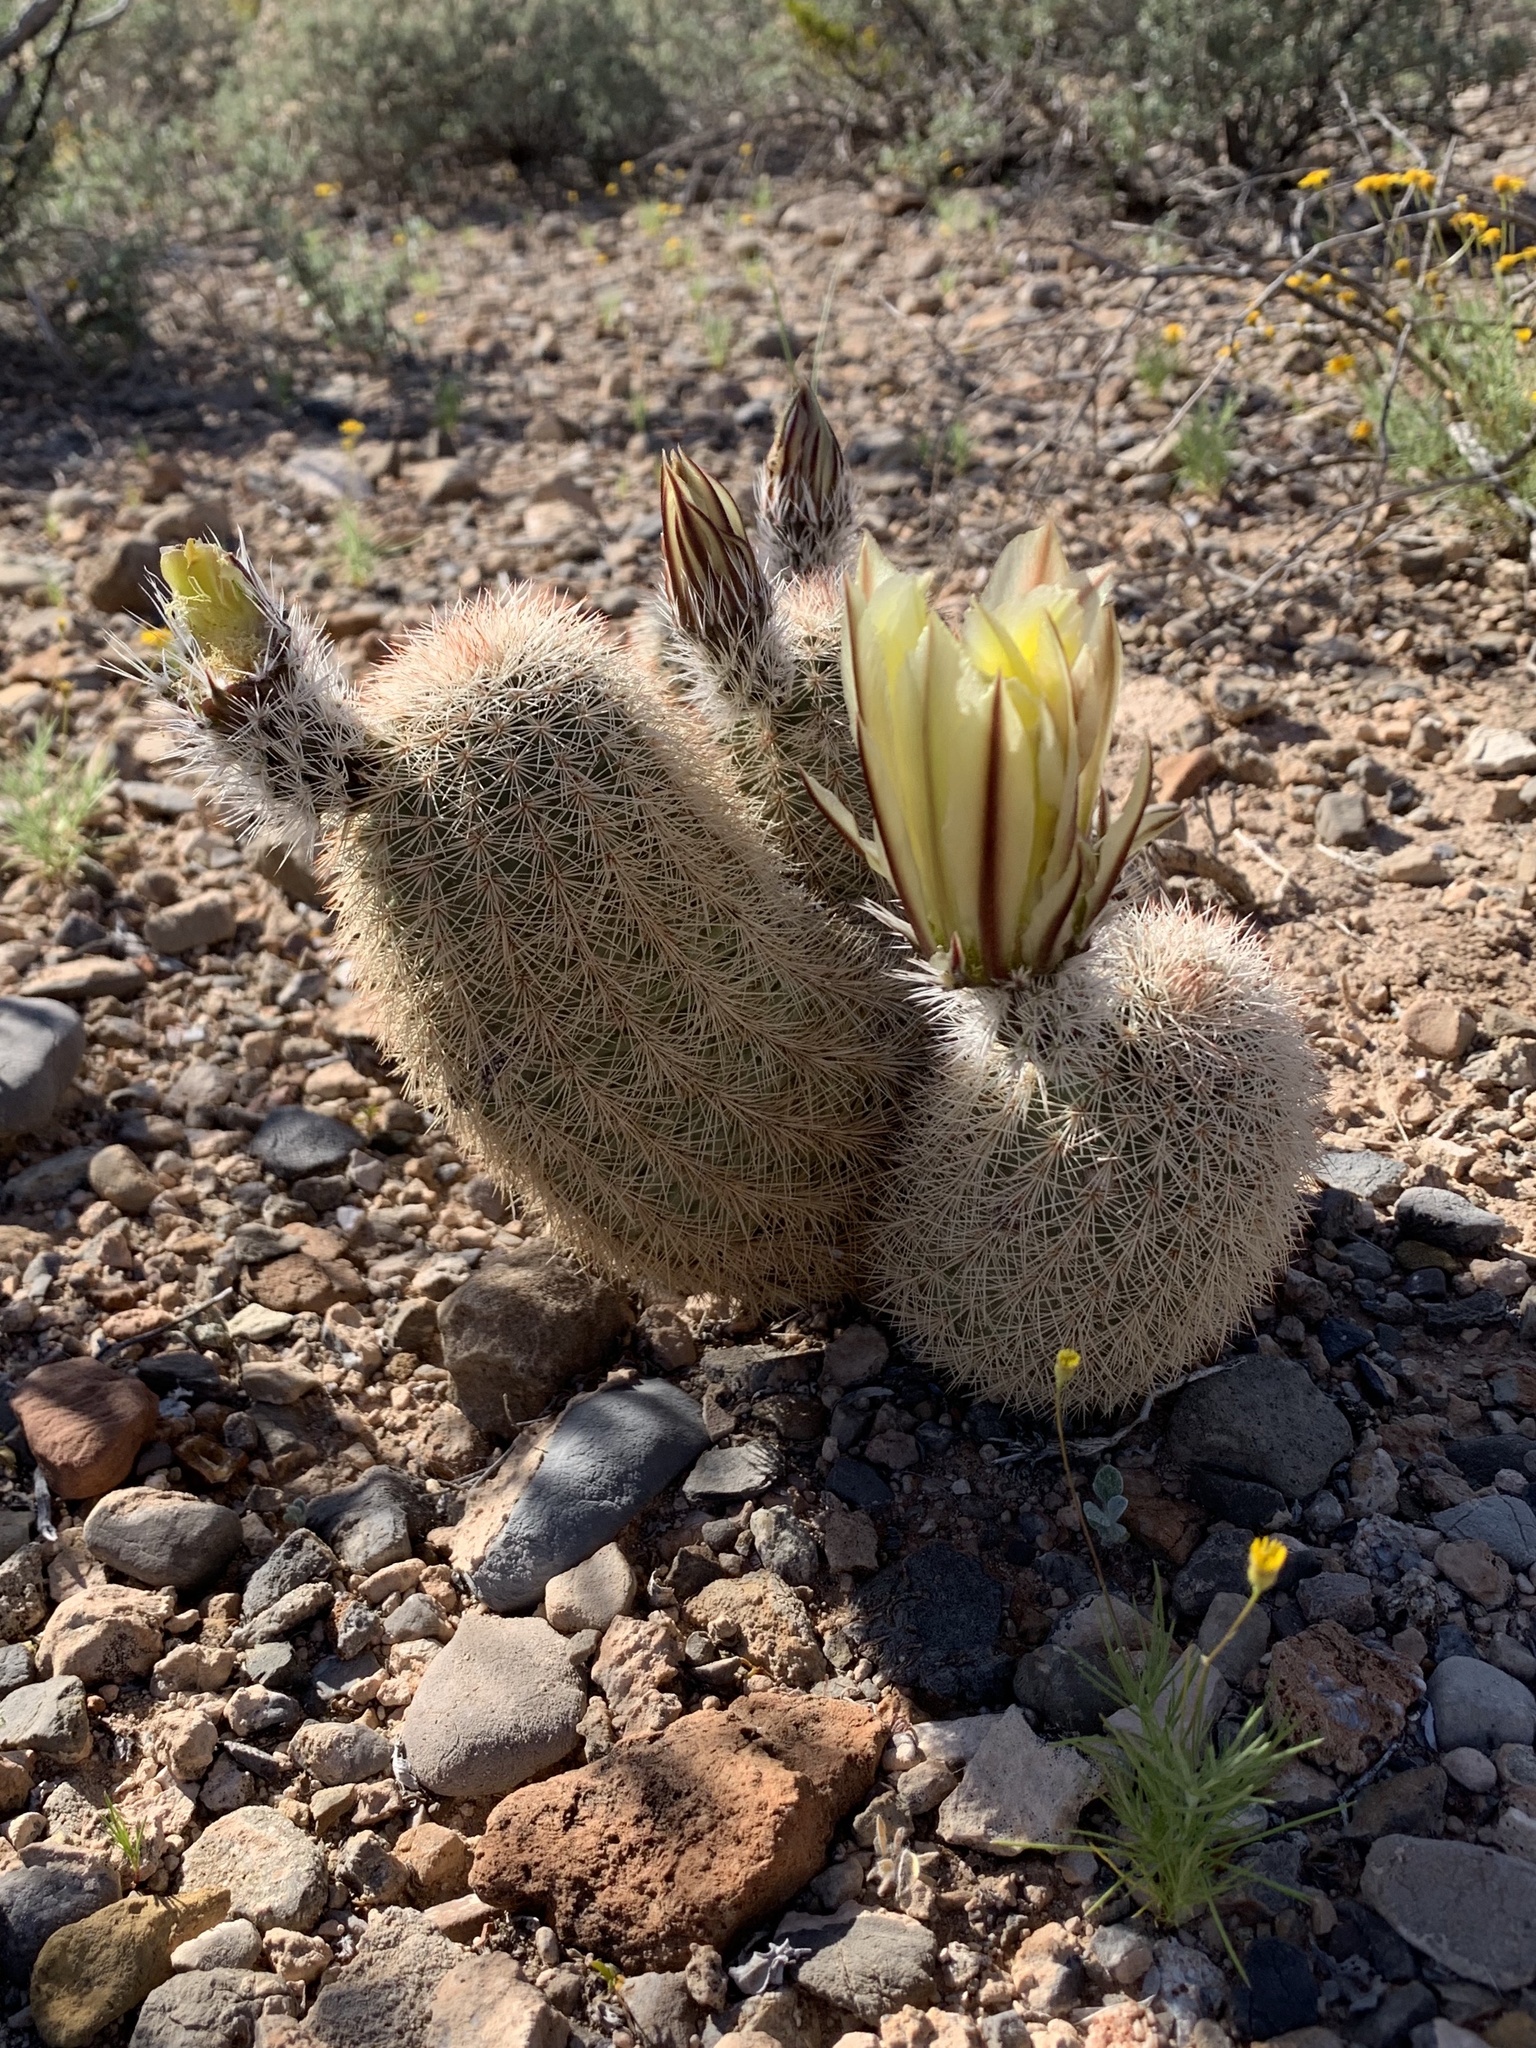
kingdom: Plantae
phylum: Tracheophyta
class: Magnoliopsida
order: Caryophyllales
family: Cactaceae
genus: Echinocereus
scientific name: Echinocereus dasyacanthus
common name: Spiny hedgehog cactus
